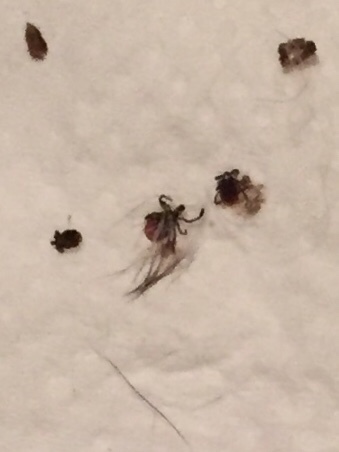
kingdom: Animalia
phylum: Arthropoda
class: Arachnida
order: Ixodida
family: Ixodidae
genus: Ixodes
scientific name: Ixodes scapularis
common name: Black legged tick
